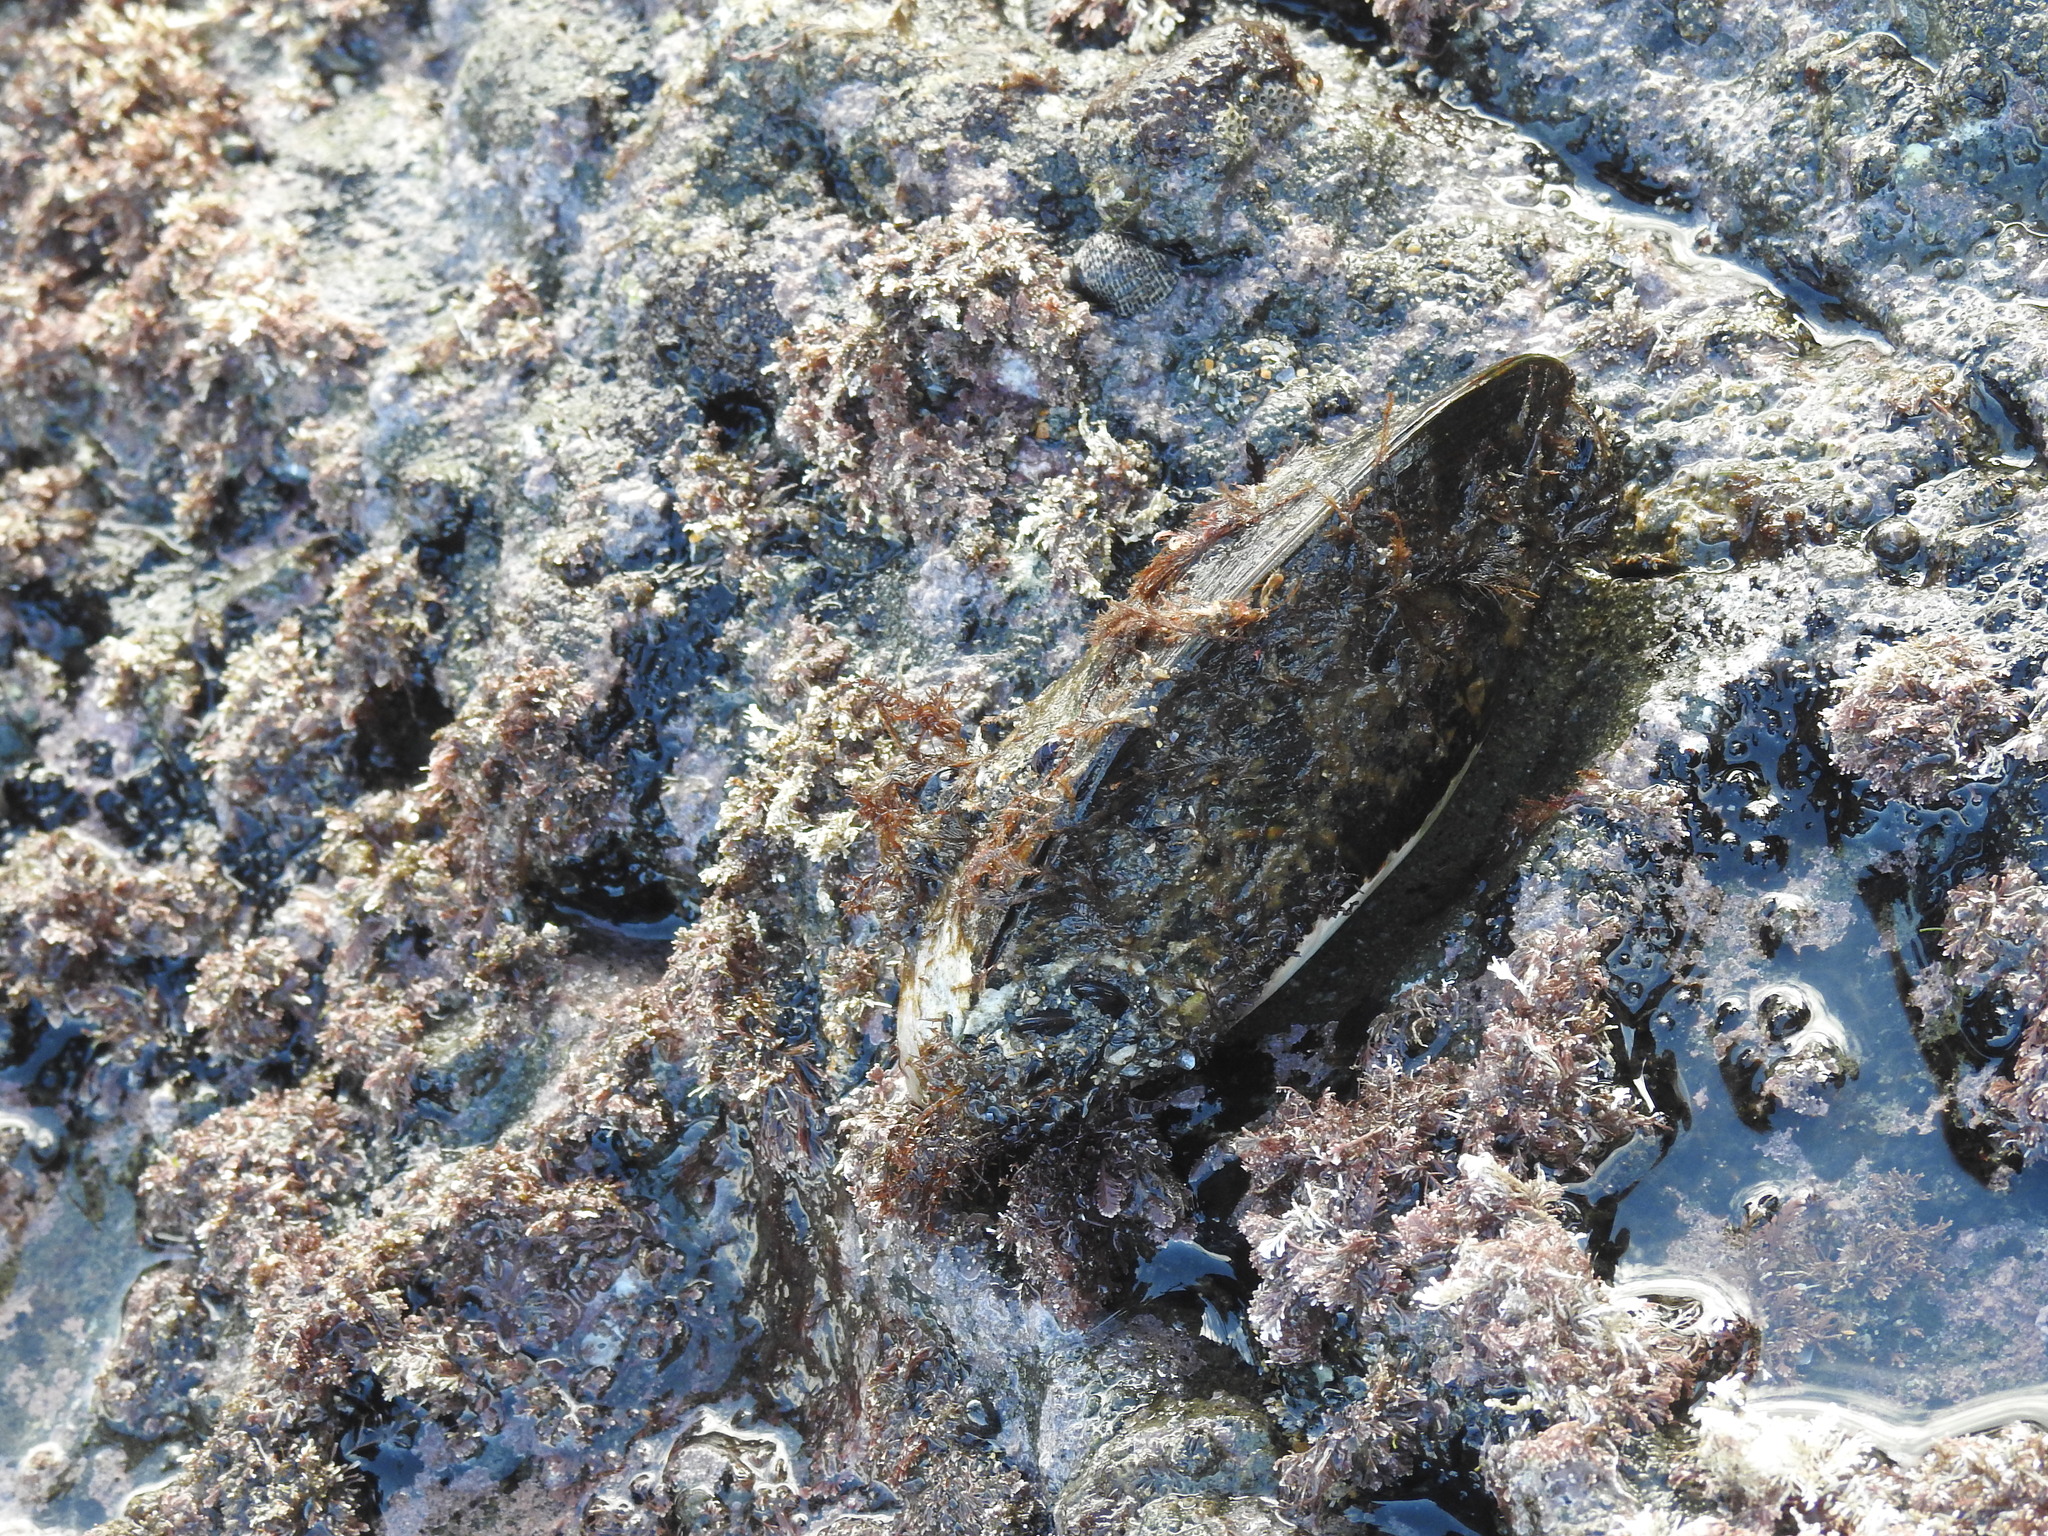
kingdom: Animalia
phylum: Mollusca
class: Bivalvia
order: Mytilida
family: Mytilidae
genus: Perna
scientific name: Perna canaliculus
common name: New zealand greenshelltm
